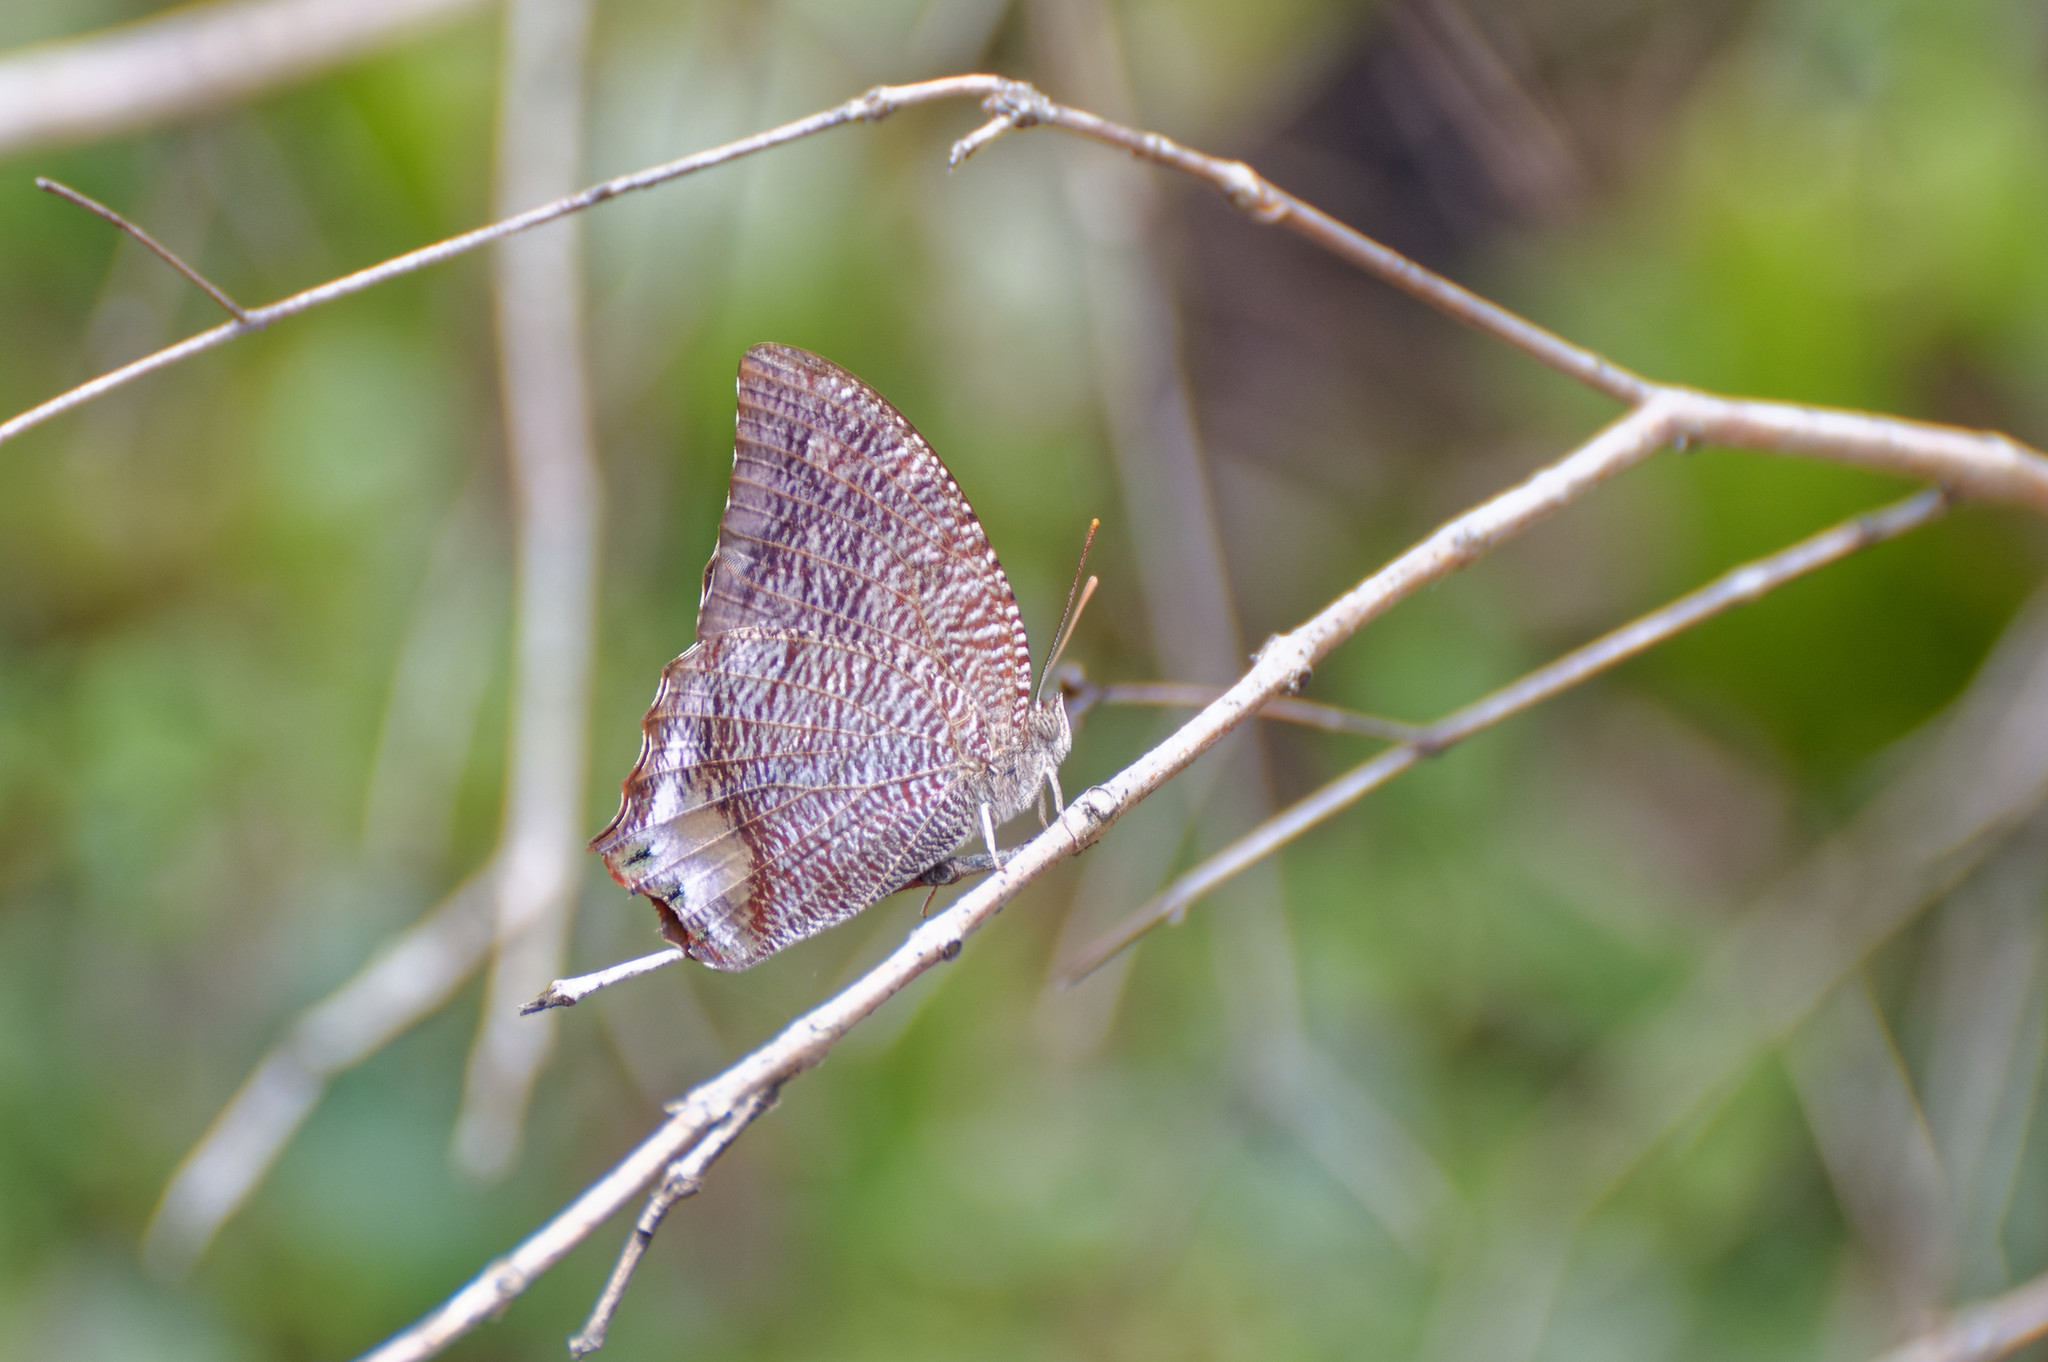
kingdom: Animalia
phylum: Arthropoda
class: Insecta
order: Lepidoptera
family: Nymphalidae
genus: Anaea
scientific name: Anaea verticordia
